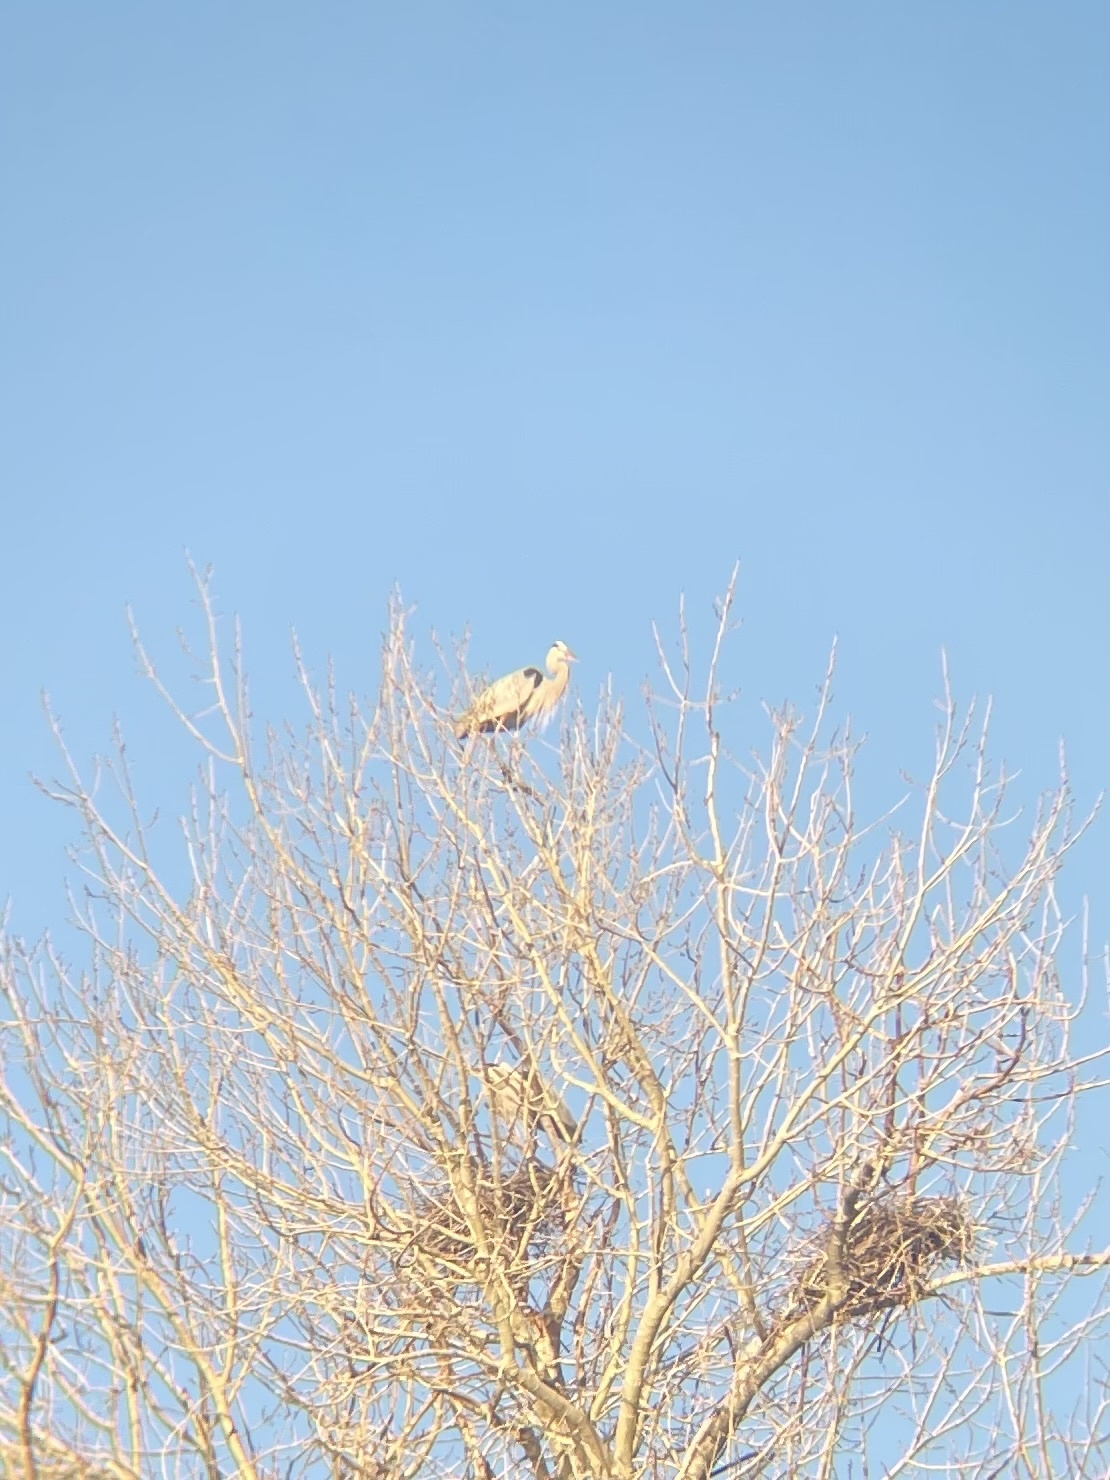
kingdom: Animalia
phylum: Chordata
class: Aves
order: Pelecaniformes
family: Ardeidae
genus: Ardea
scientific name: Ardea herodias
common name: Great blue heron
